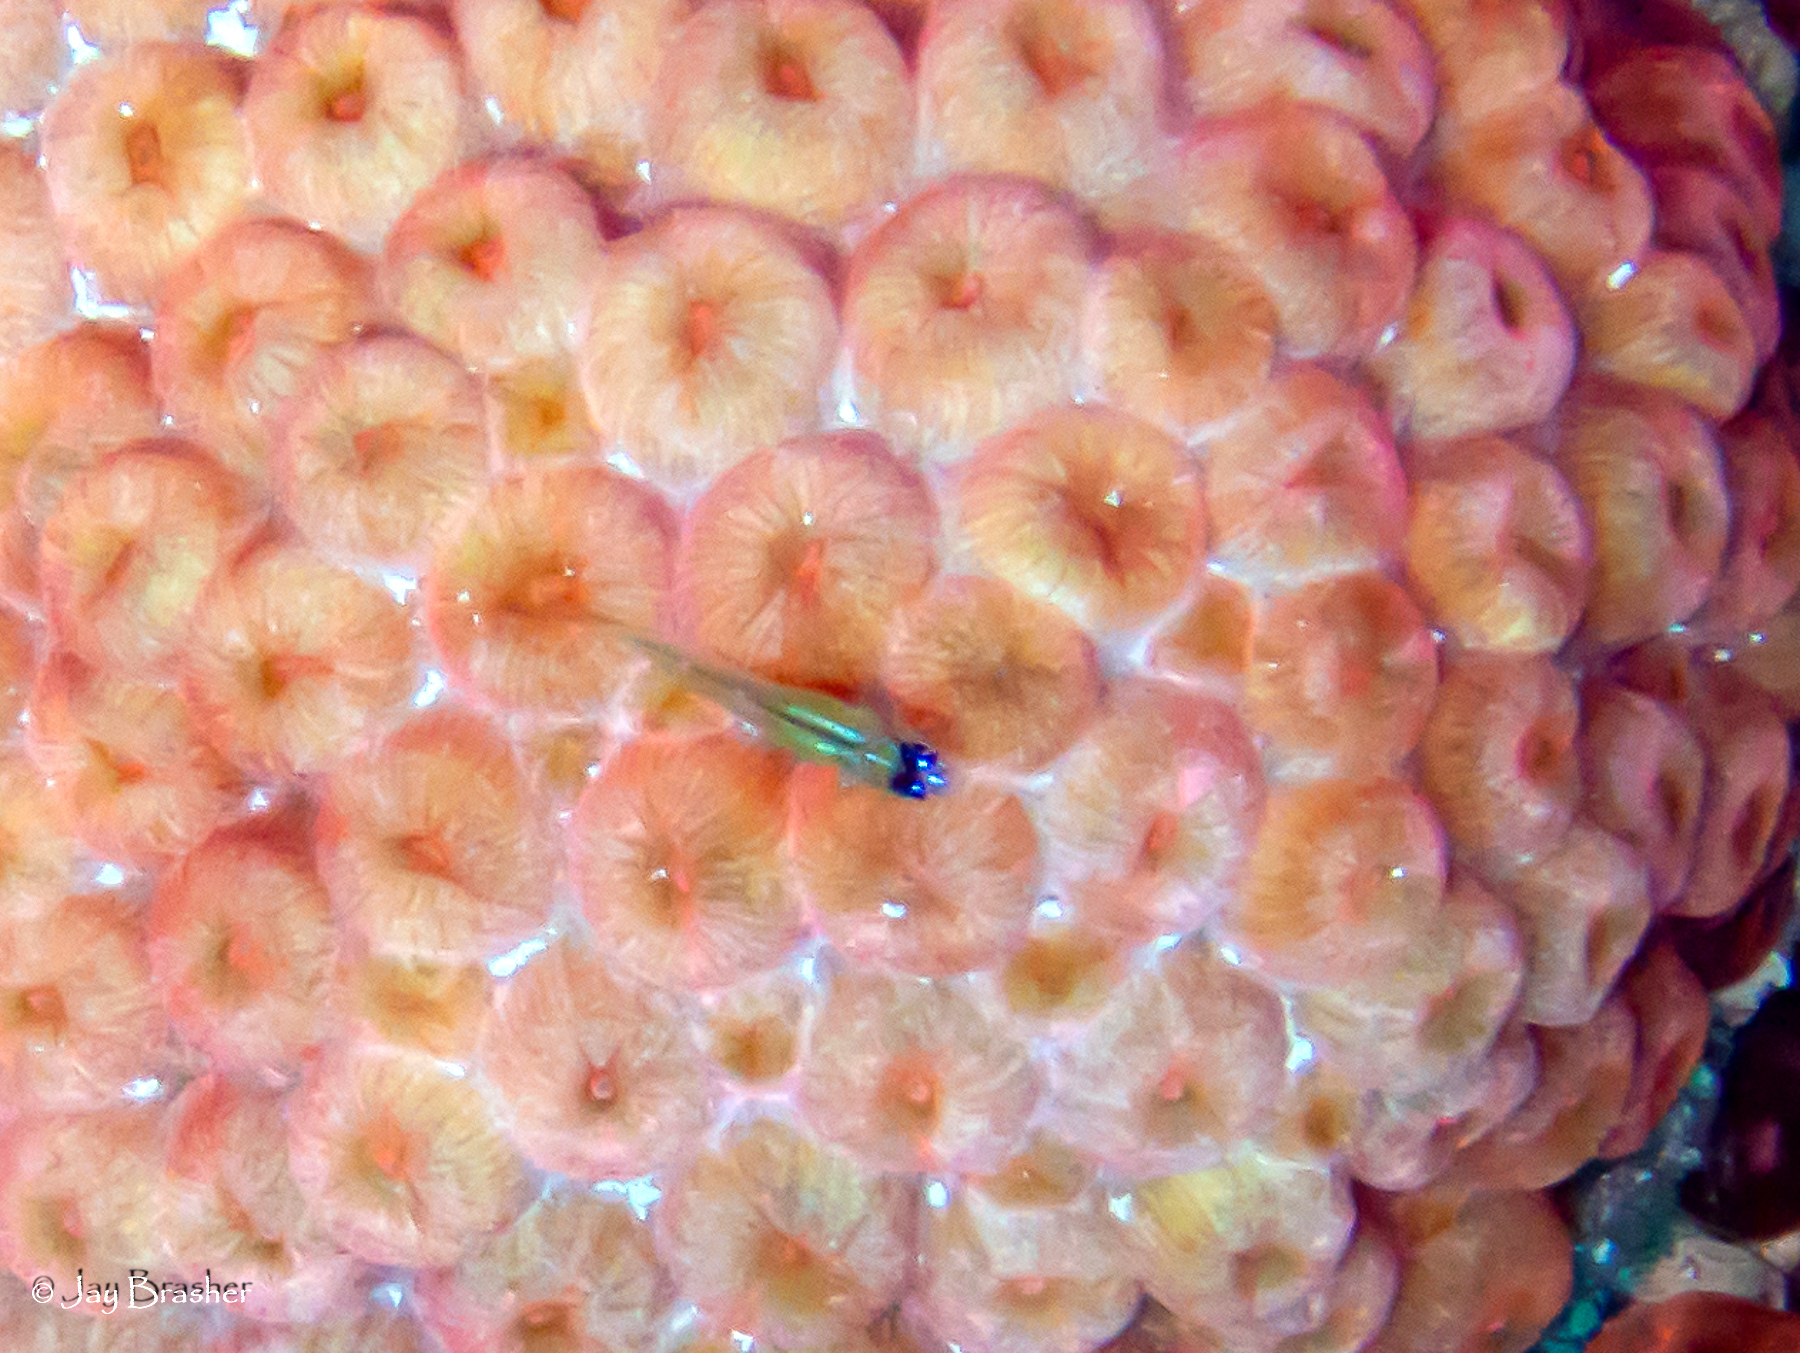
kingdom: Animalia
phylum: Chordata
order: Perciformes
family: Gobiidae
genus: Coryphopterus
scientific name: Coryphopterus lipernes
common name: Peppermint goby
